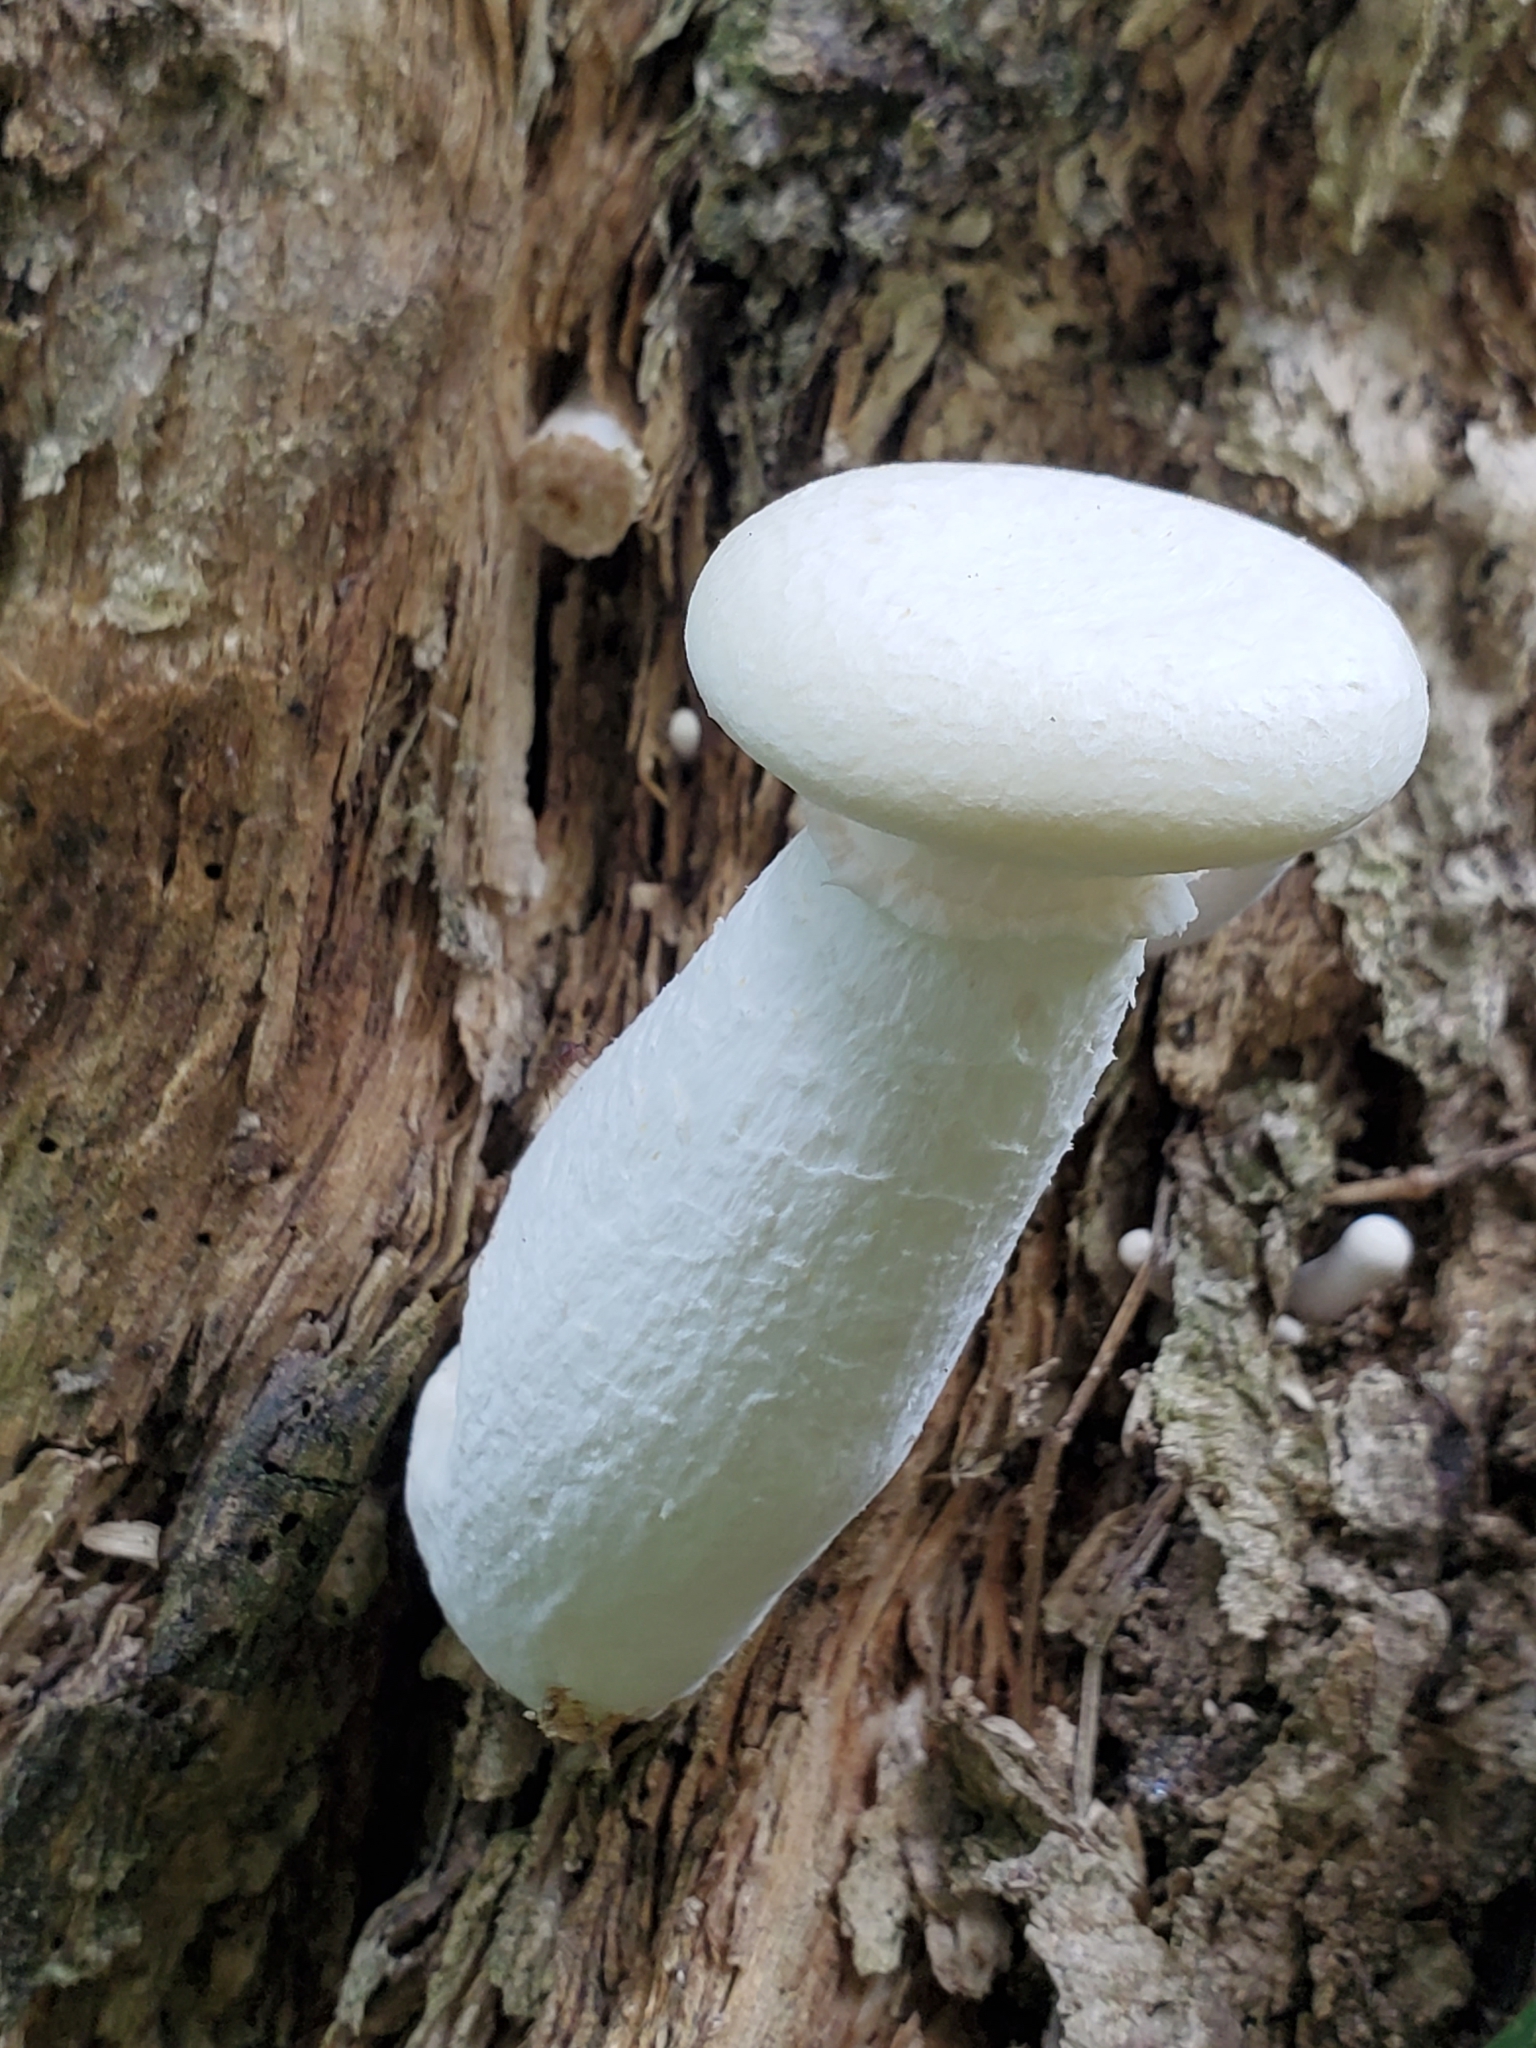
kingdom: Fungi
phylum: Basidiomycota
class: Agaricomycetes
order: Polyporales
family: Polyporaceae
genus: Lentinus
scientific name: Lentinus levis
